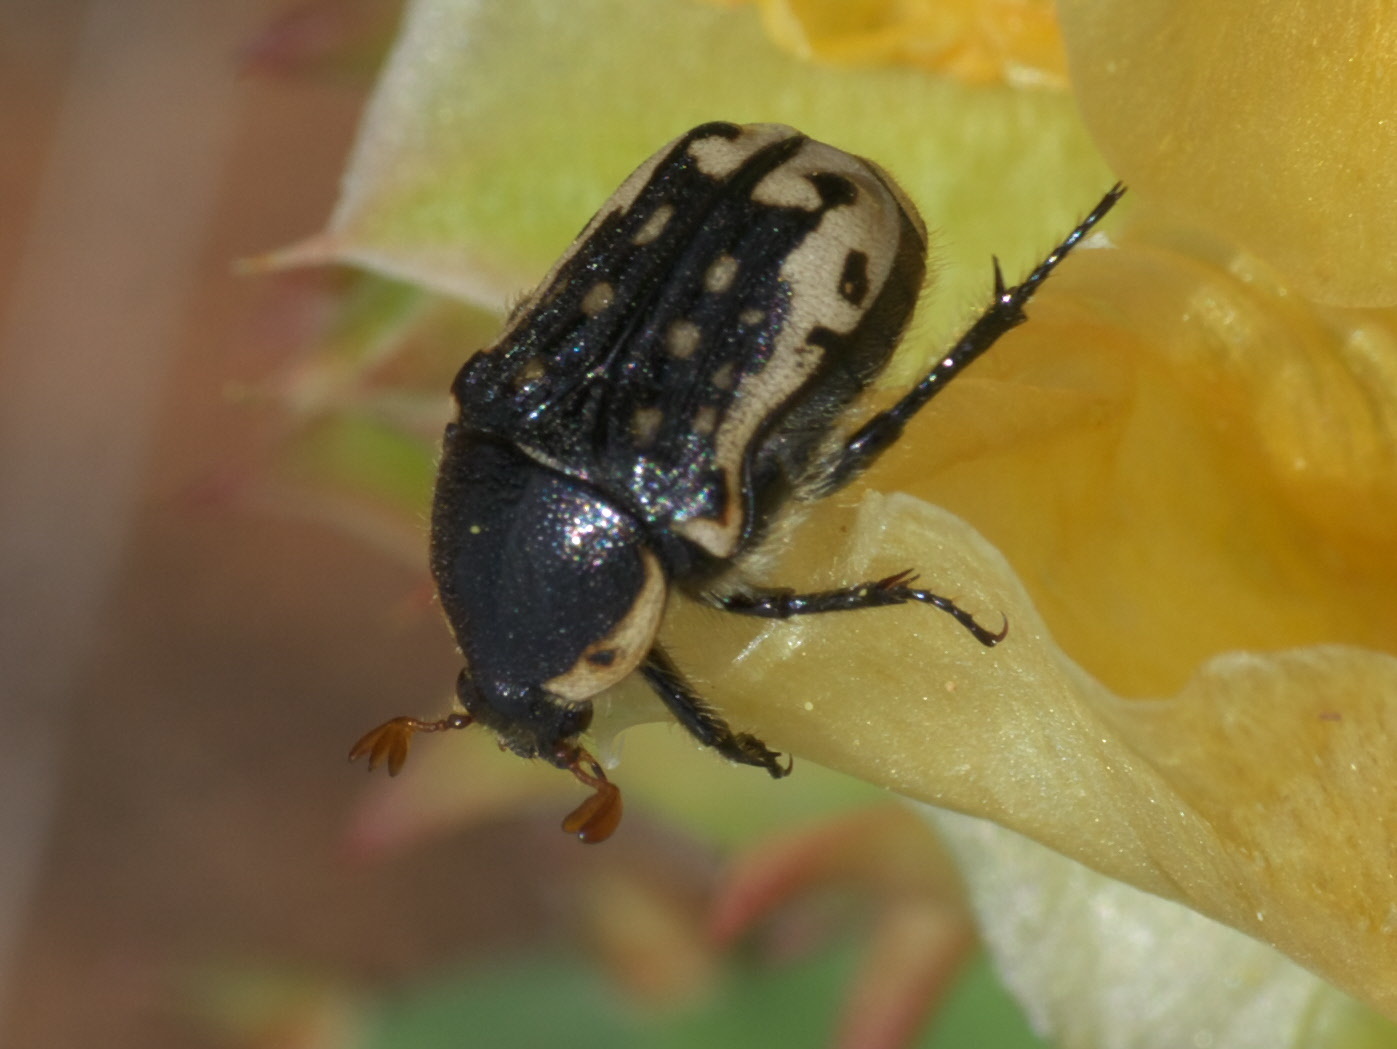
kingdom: Animalia
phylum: Arthropoda
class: Insecta
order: Coleoptera
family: Scarabaeidae
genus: Euphoria
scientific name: Euphoria kernii
